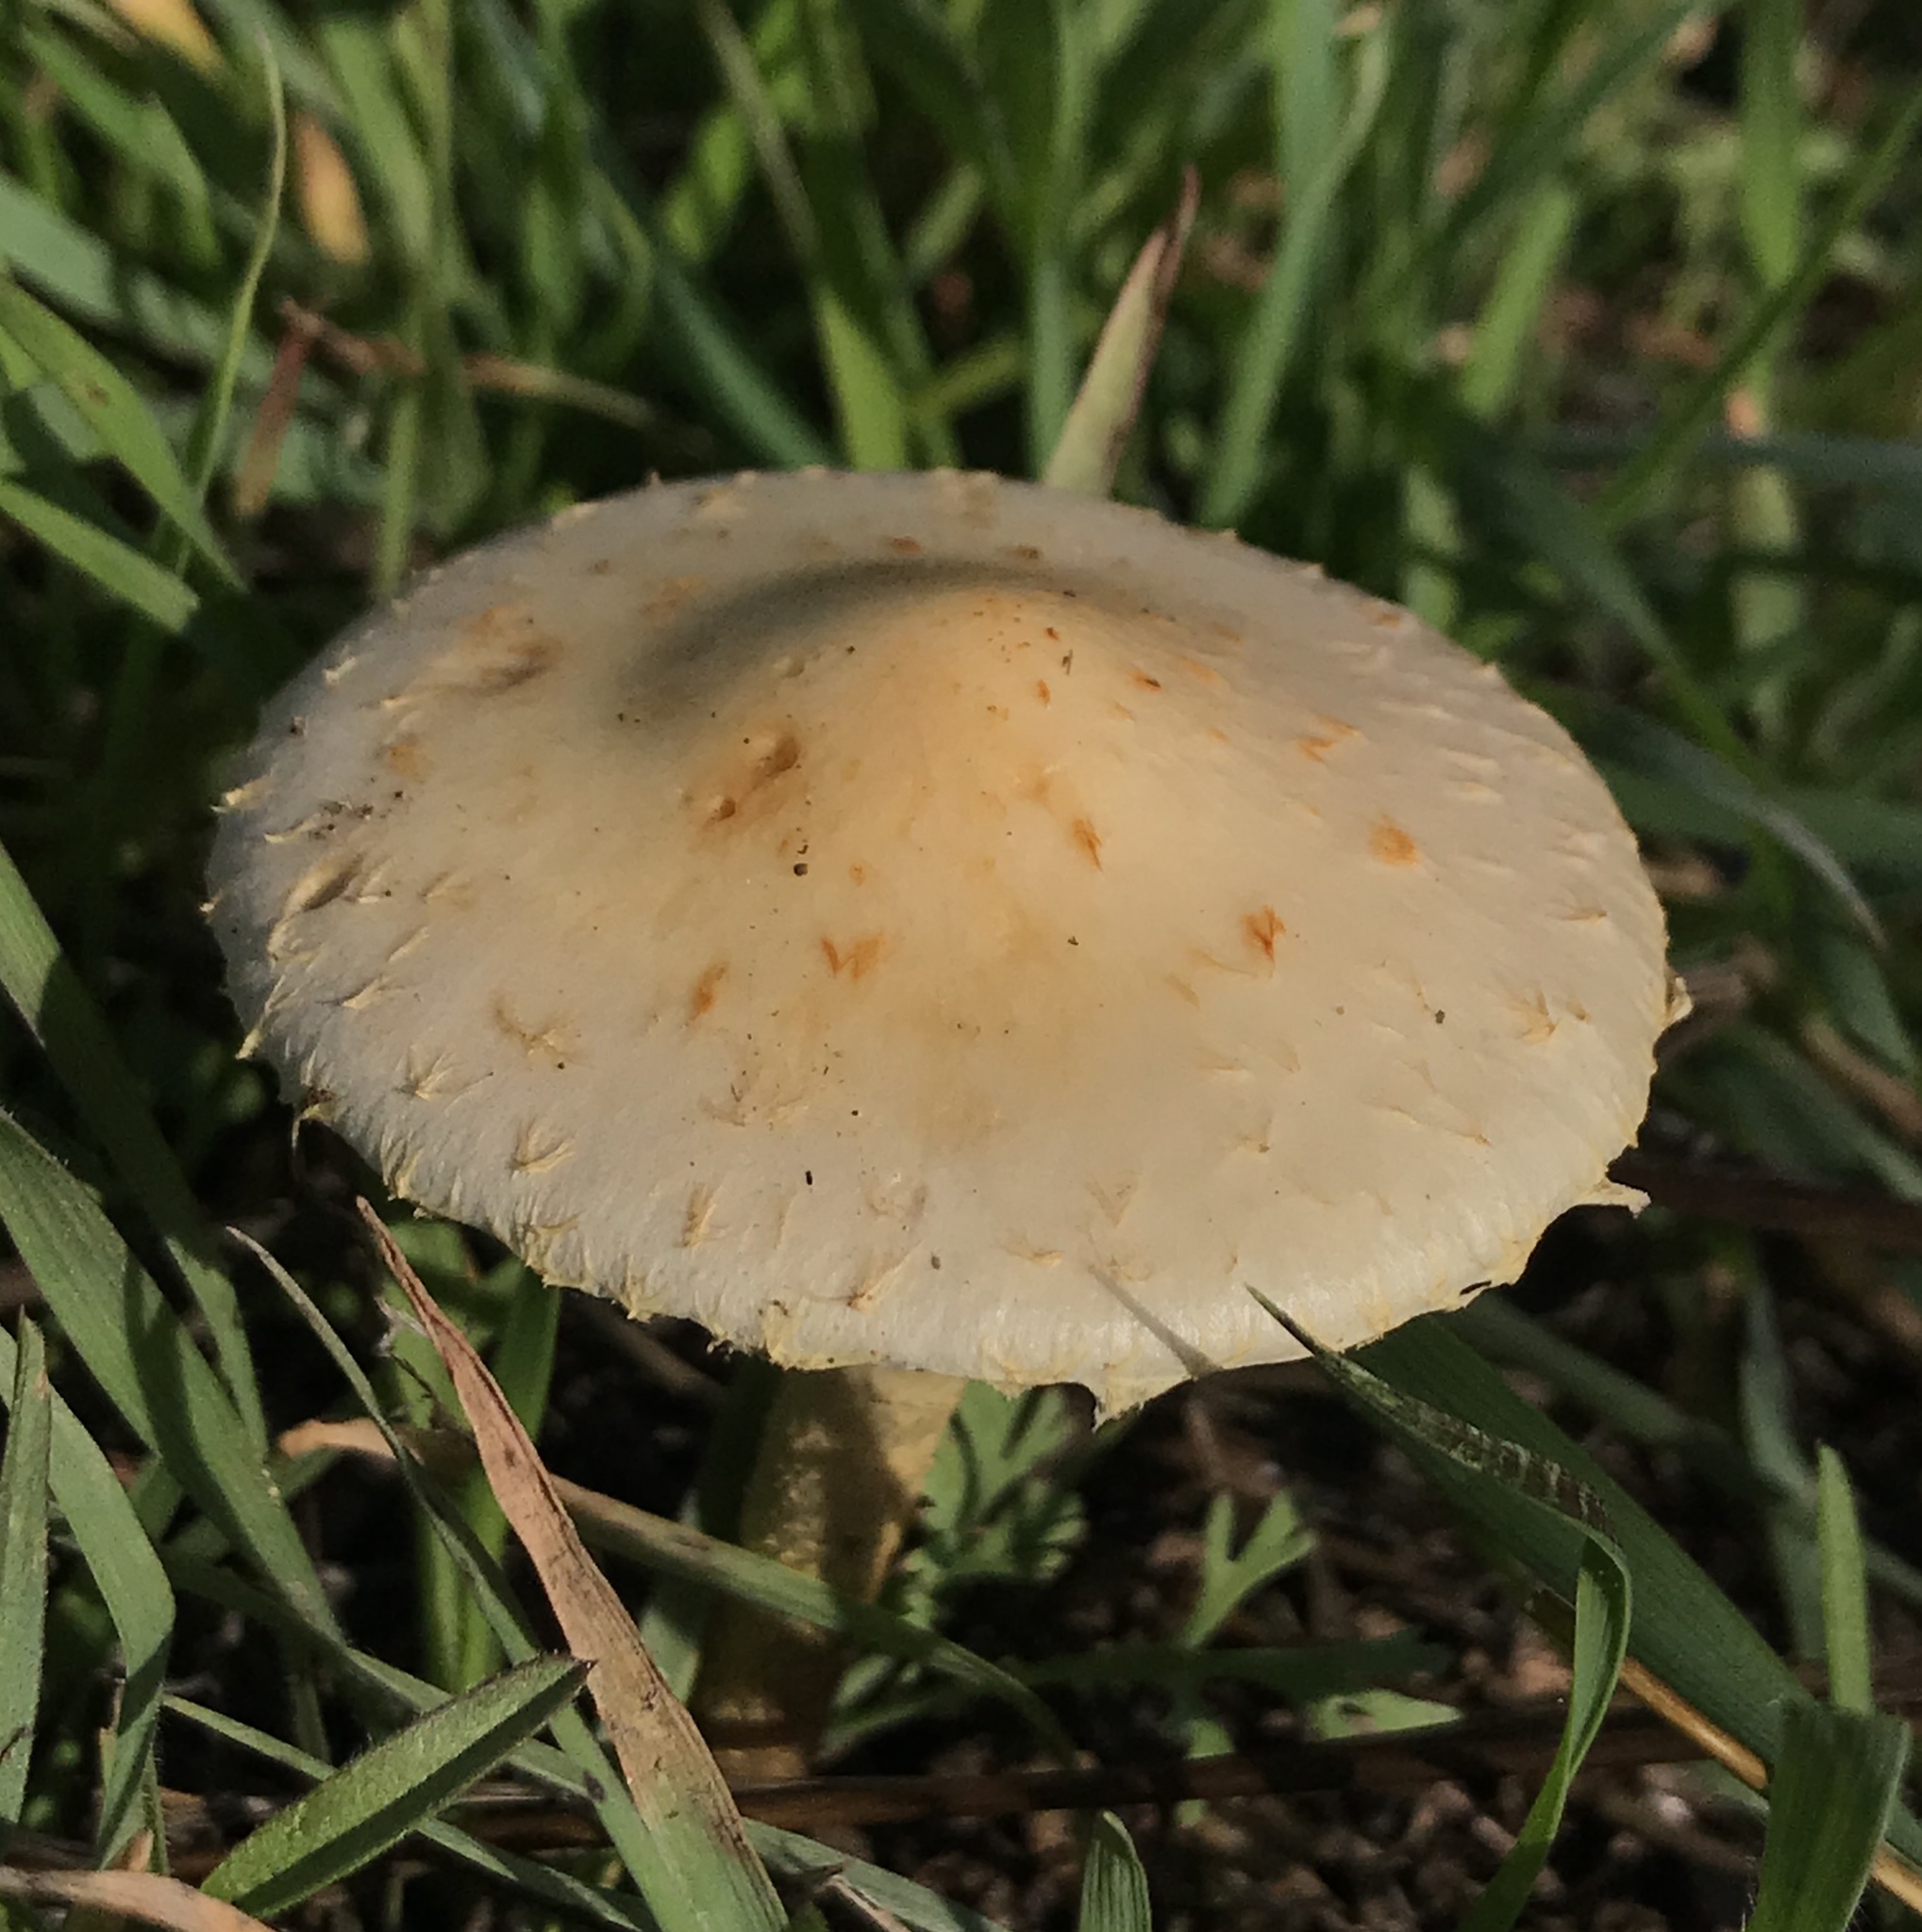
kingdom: Fungi
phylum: Basidiomycota
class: Agaricomycetes
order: Agaricales
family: Strophariaceae
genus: Leratiomyces
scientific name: Leratiomyces percevalii
